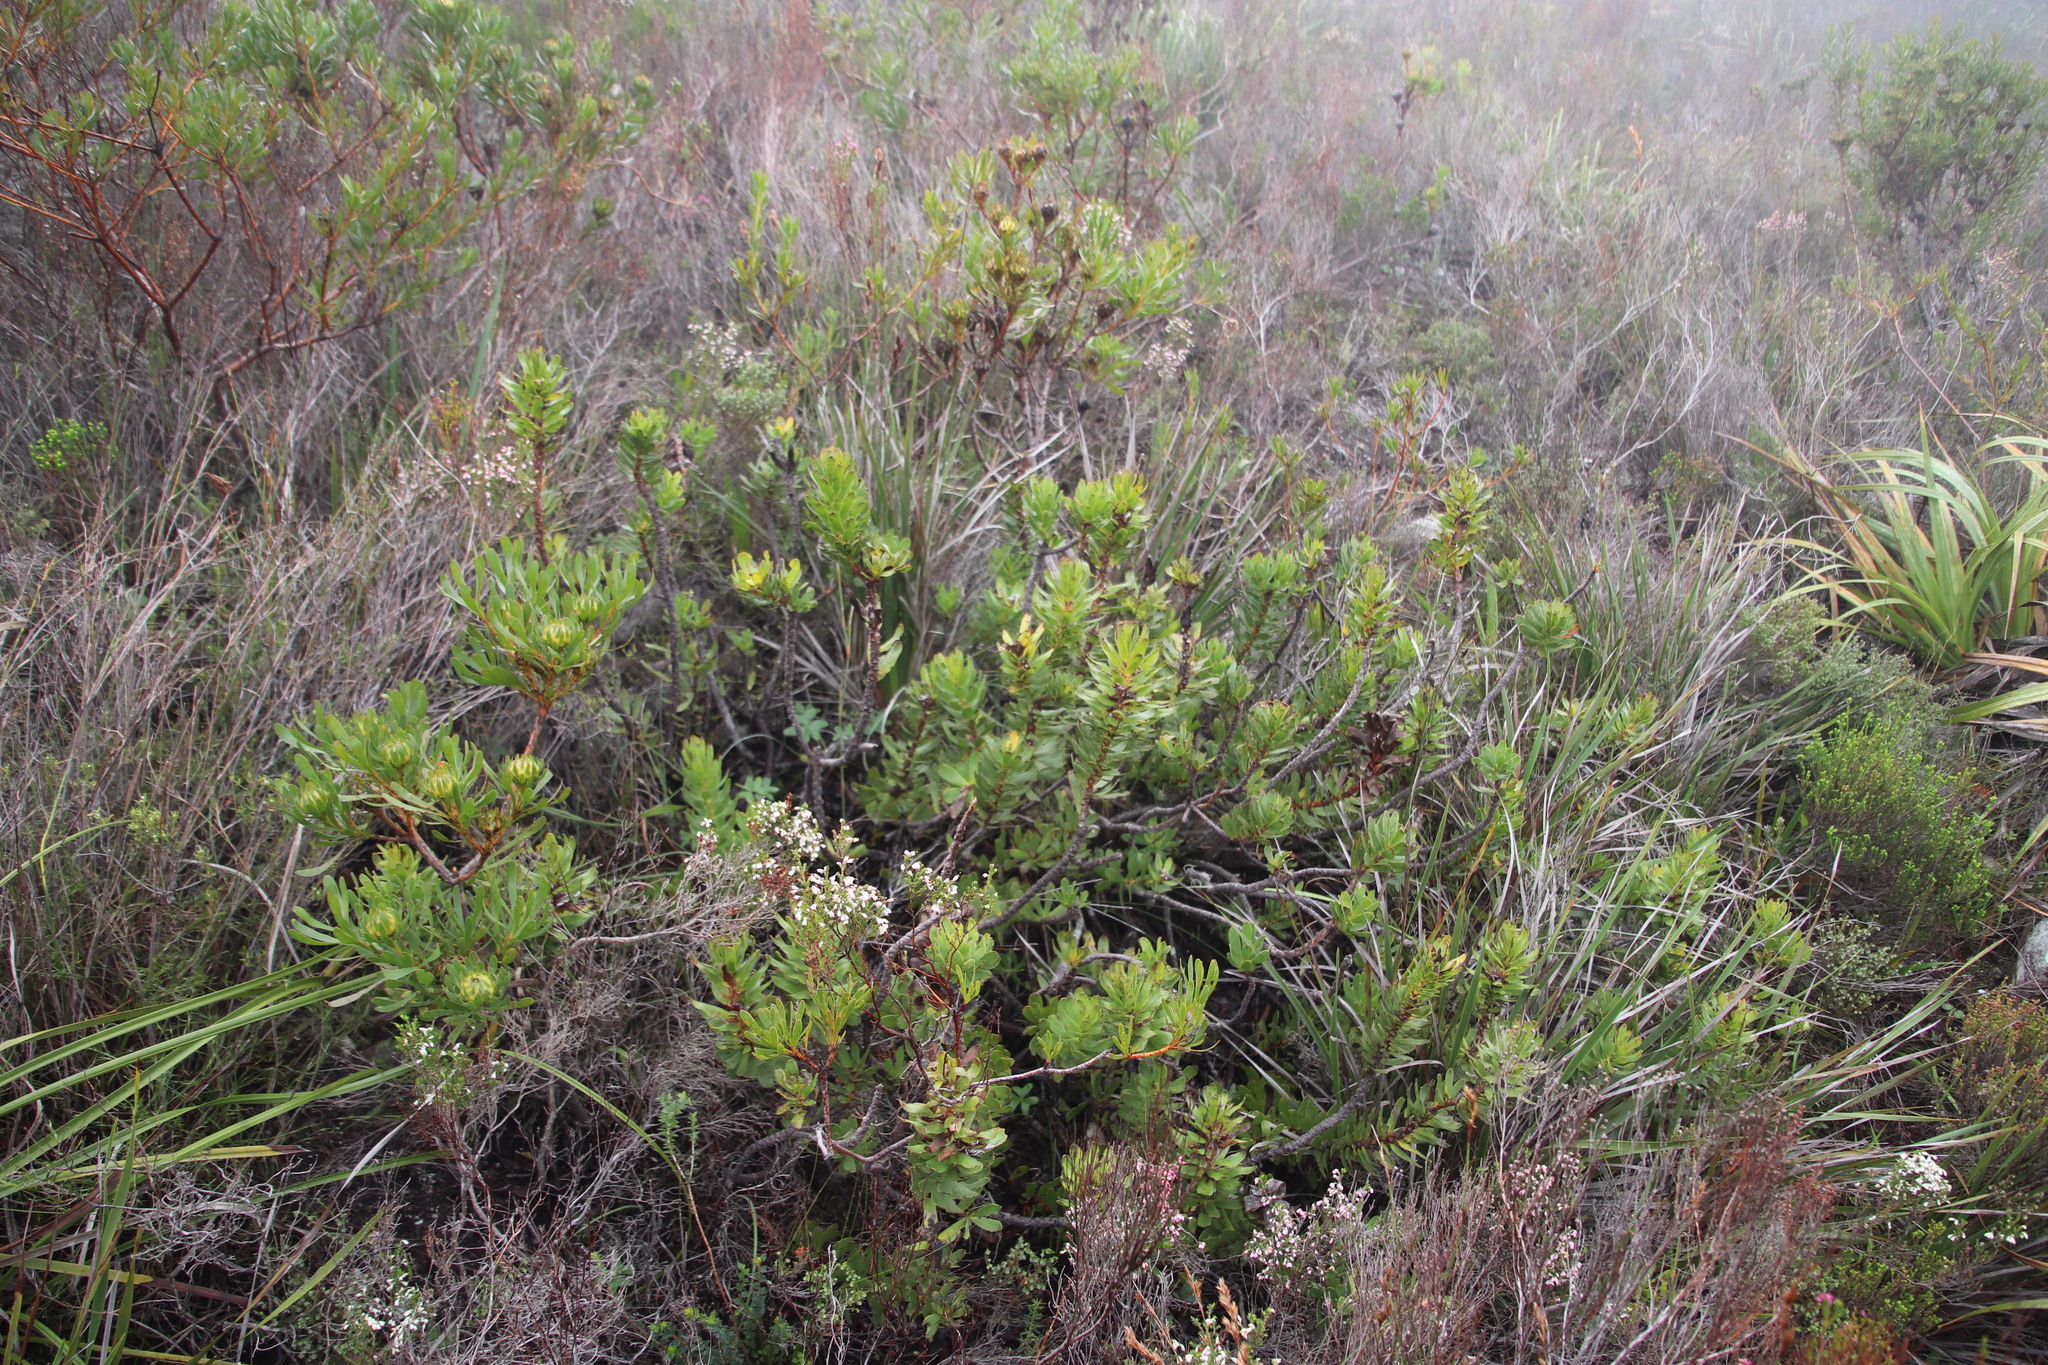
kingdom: Plantae
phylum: Tracheophyta
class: Magnoliopsida
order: Proteales
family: Proteaceae
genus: Mimetes
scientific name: Mimetes cucullatus
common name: Common pagoda
